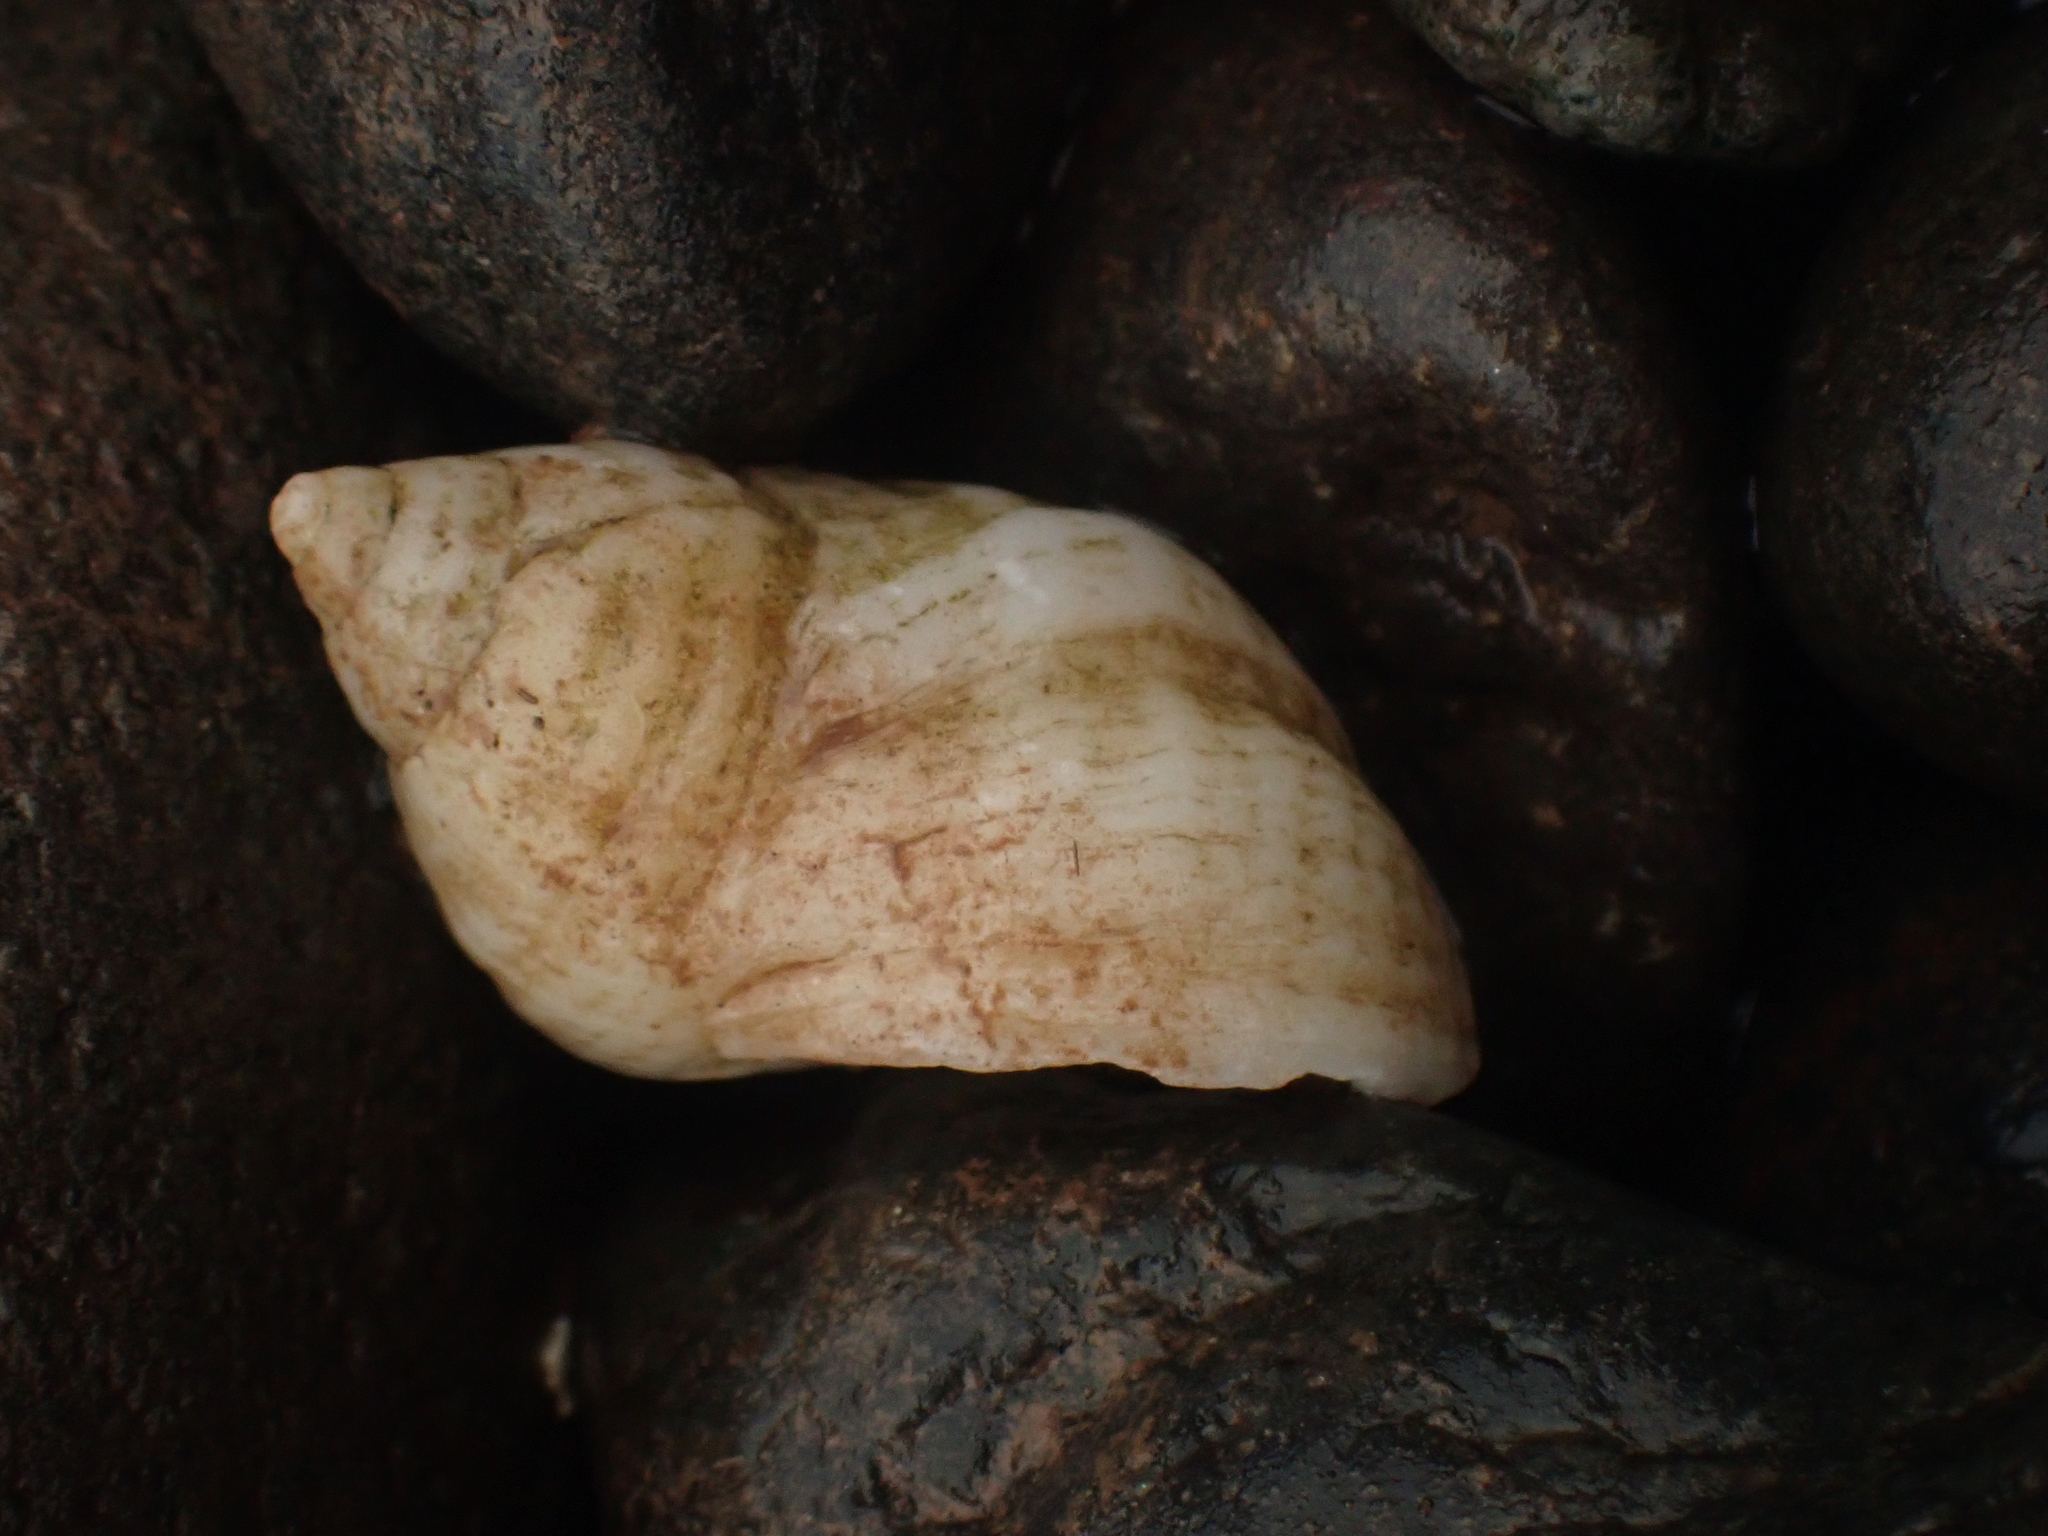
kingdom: Animalia
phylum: Mollusca
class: Gastropoda
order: Neogastropoda
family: Muricidae
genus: Nucella
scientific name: Nucella lapillus
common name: Dog whelk
